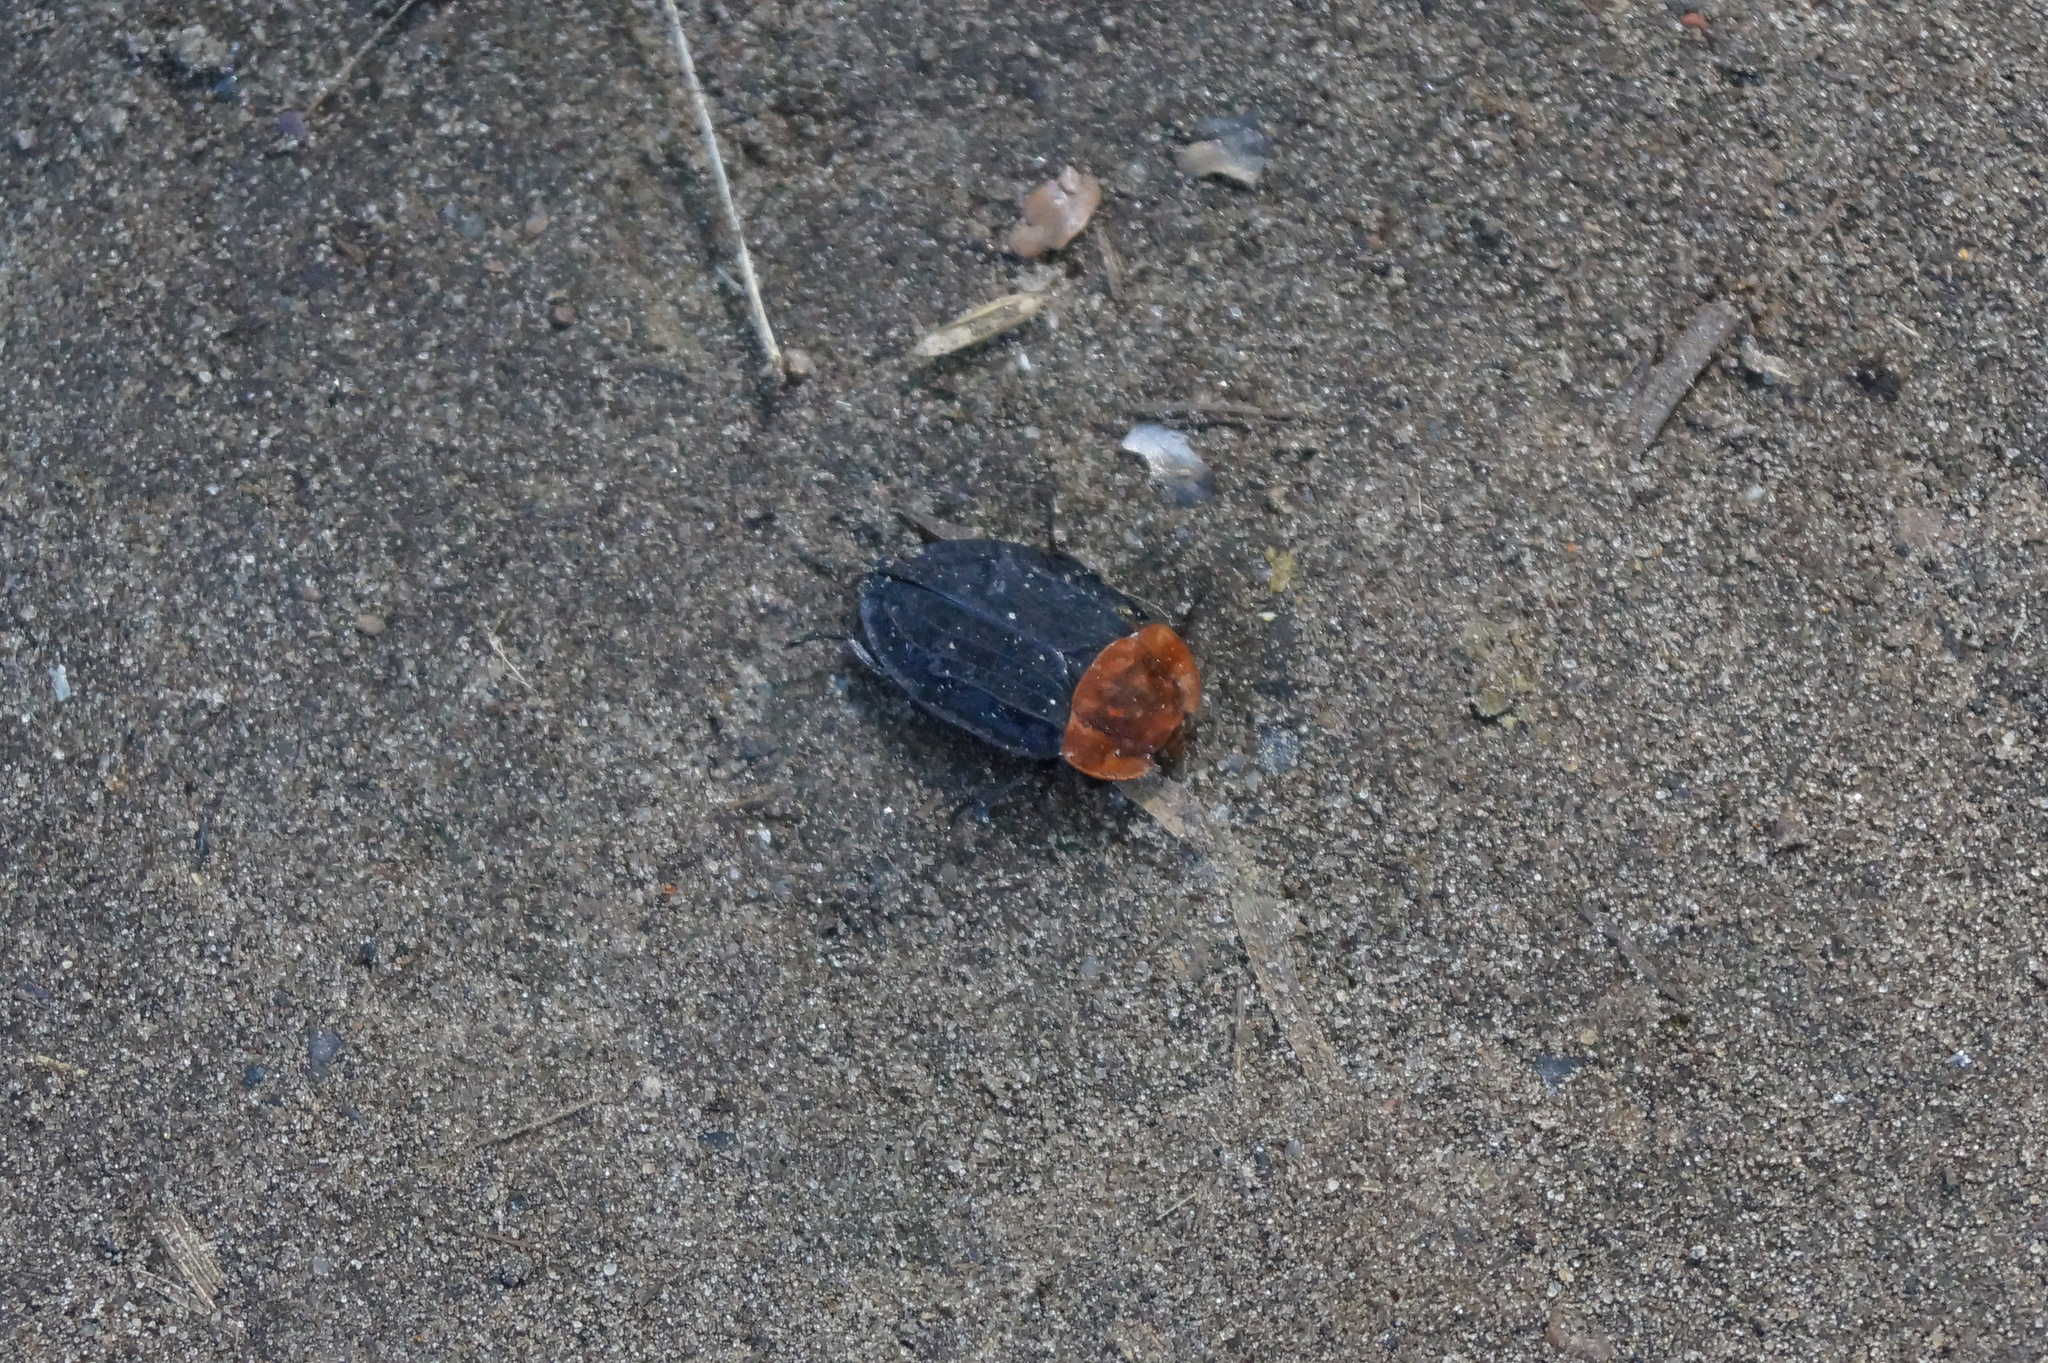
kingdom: Animalia
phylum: Arthropoda
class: Insecta
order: Coleoptera
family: Staphylinidae
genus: Oiceoptoma
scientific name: Oiceoptoma thoracicum
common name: Red-breasted carrion beetle
